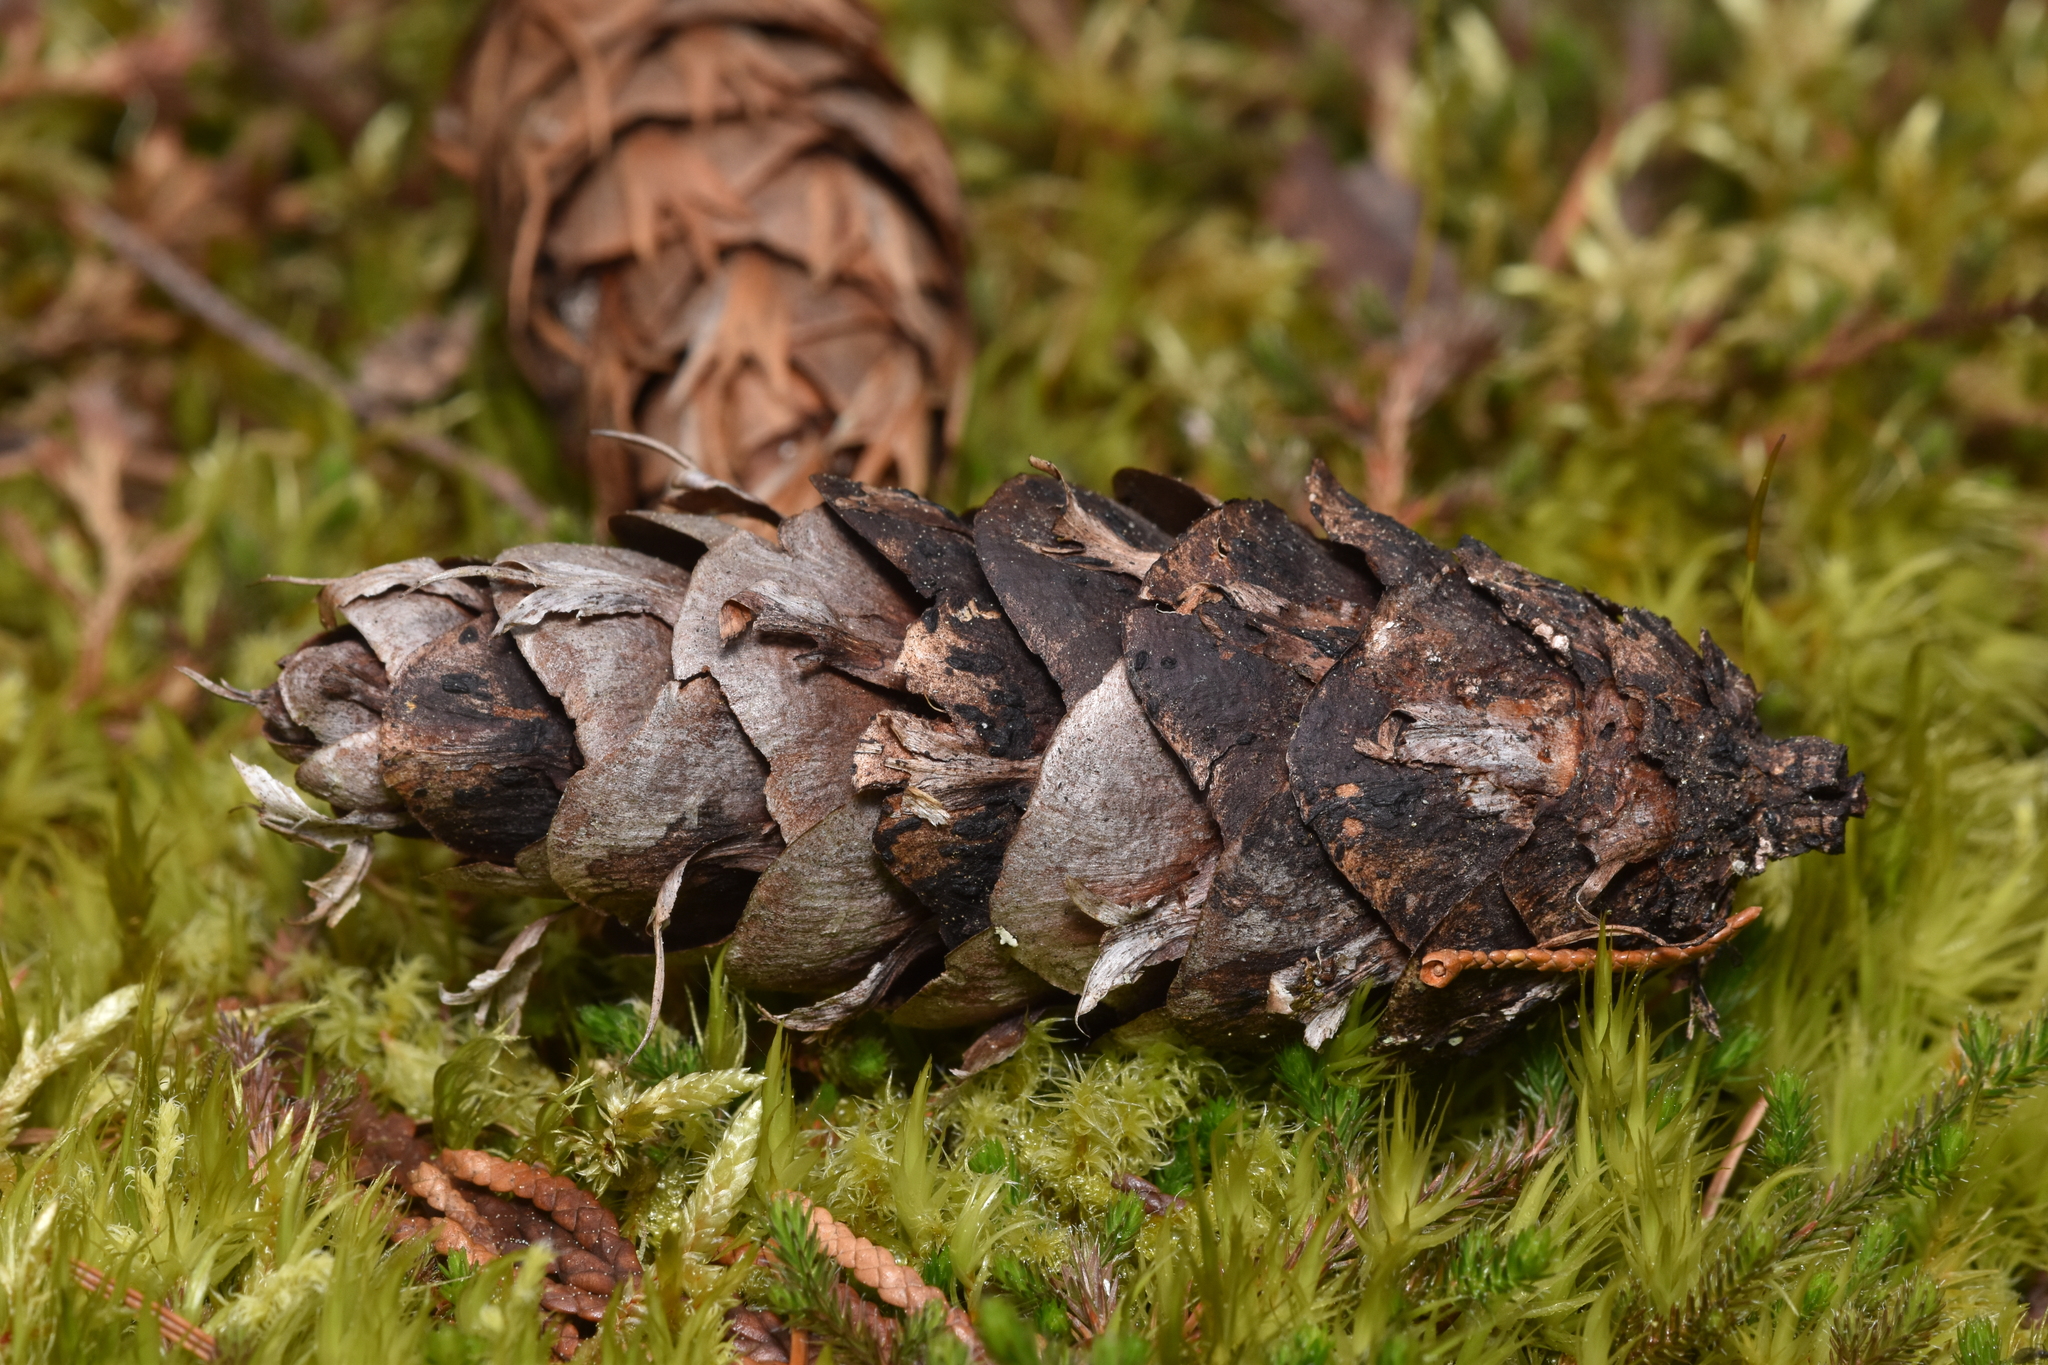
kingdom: Plantae
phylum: Tracheophyta
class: Pinopsida
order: Pinales
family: Pinaceae
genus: Pseudotsuga
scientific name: Pseudotsuga menziesii
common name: Douglas fir
